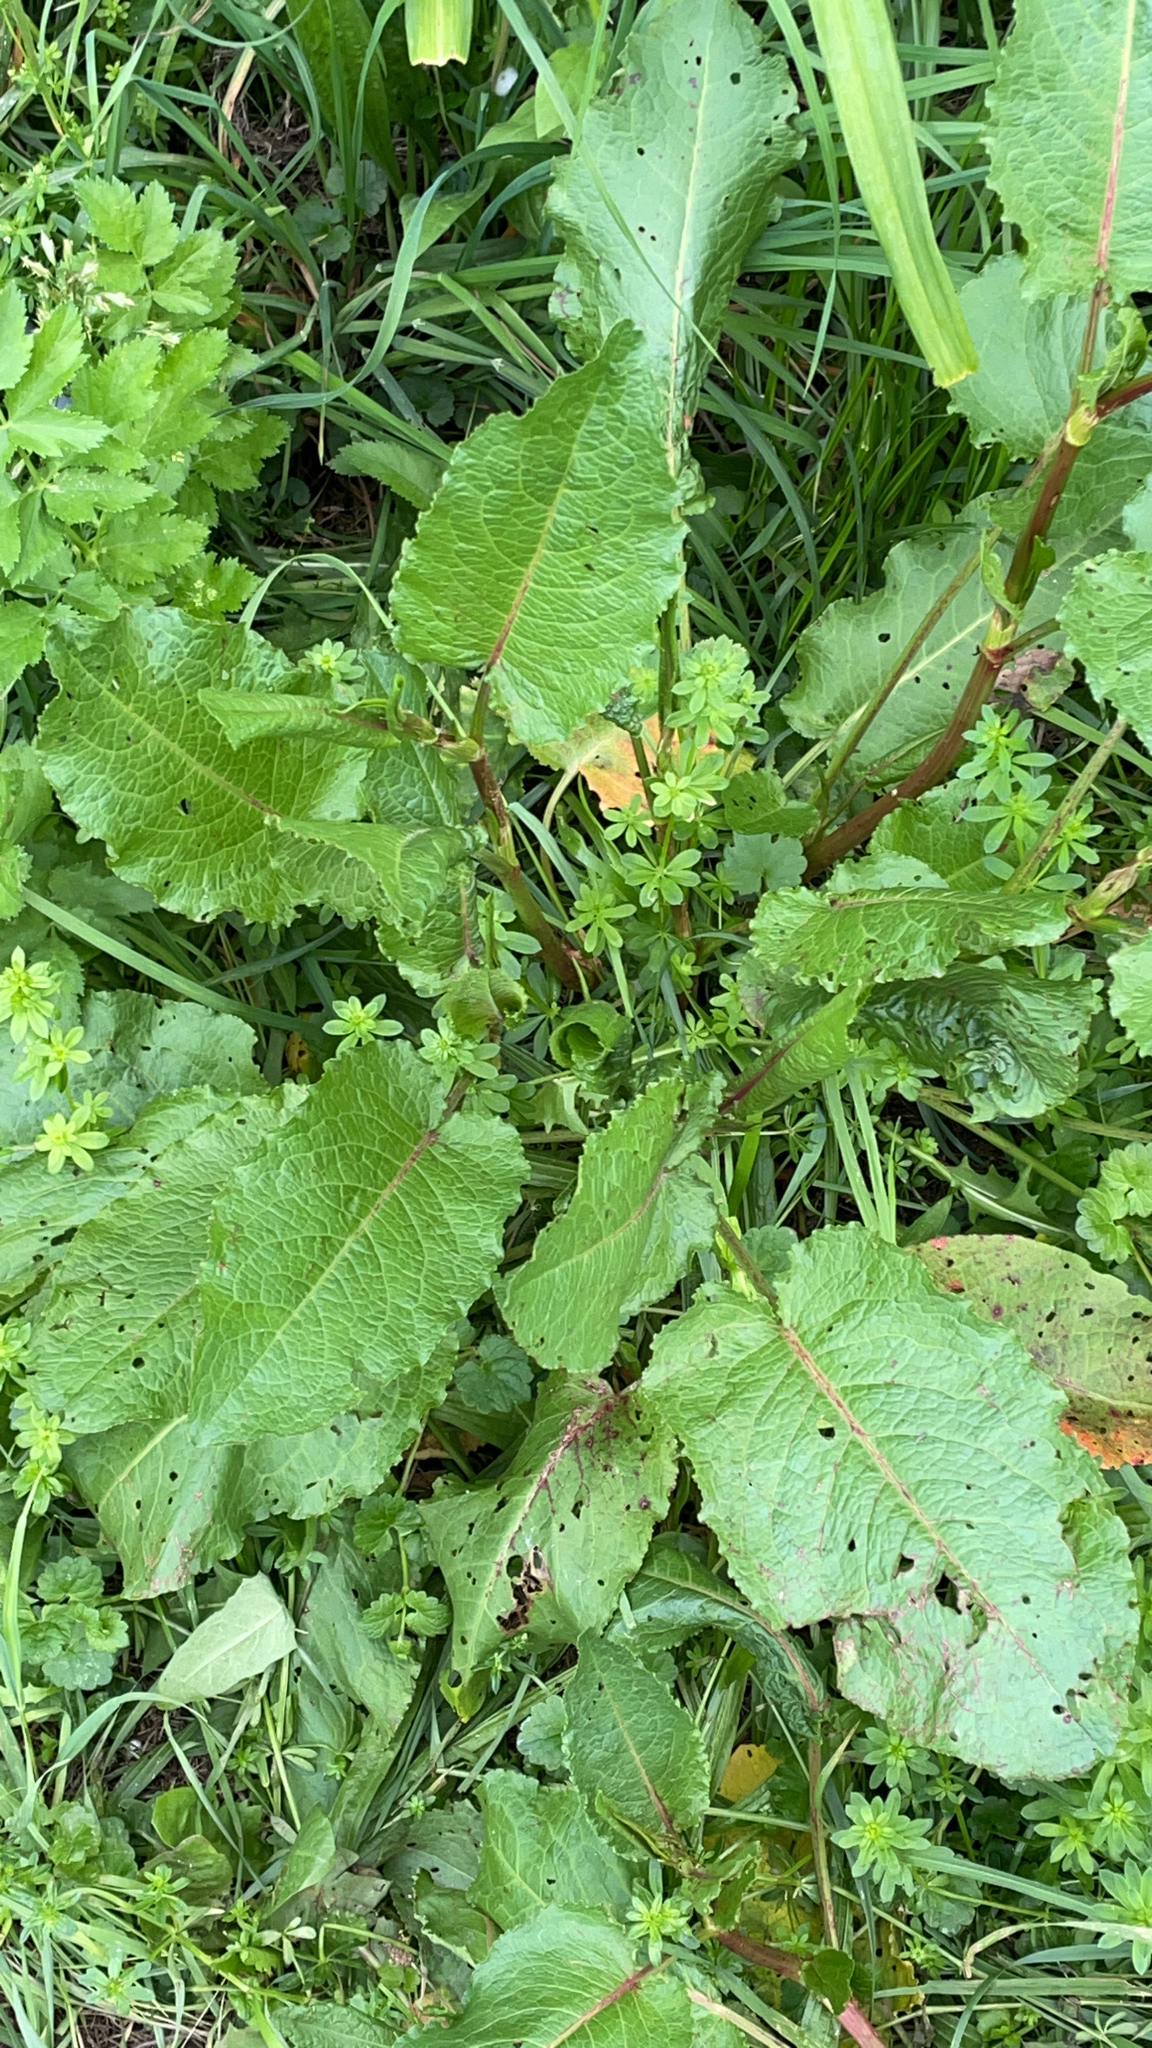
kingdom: Plantae
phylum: Tracheophyta
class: Magnoliopsida
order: Caryophyllales
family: Polygonaceae
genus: Rumex
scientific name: Rumex obtusifolius
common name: Bitter dock
